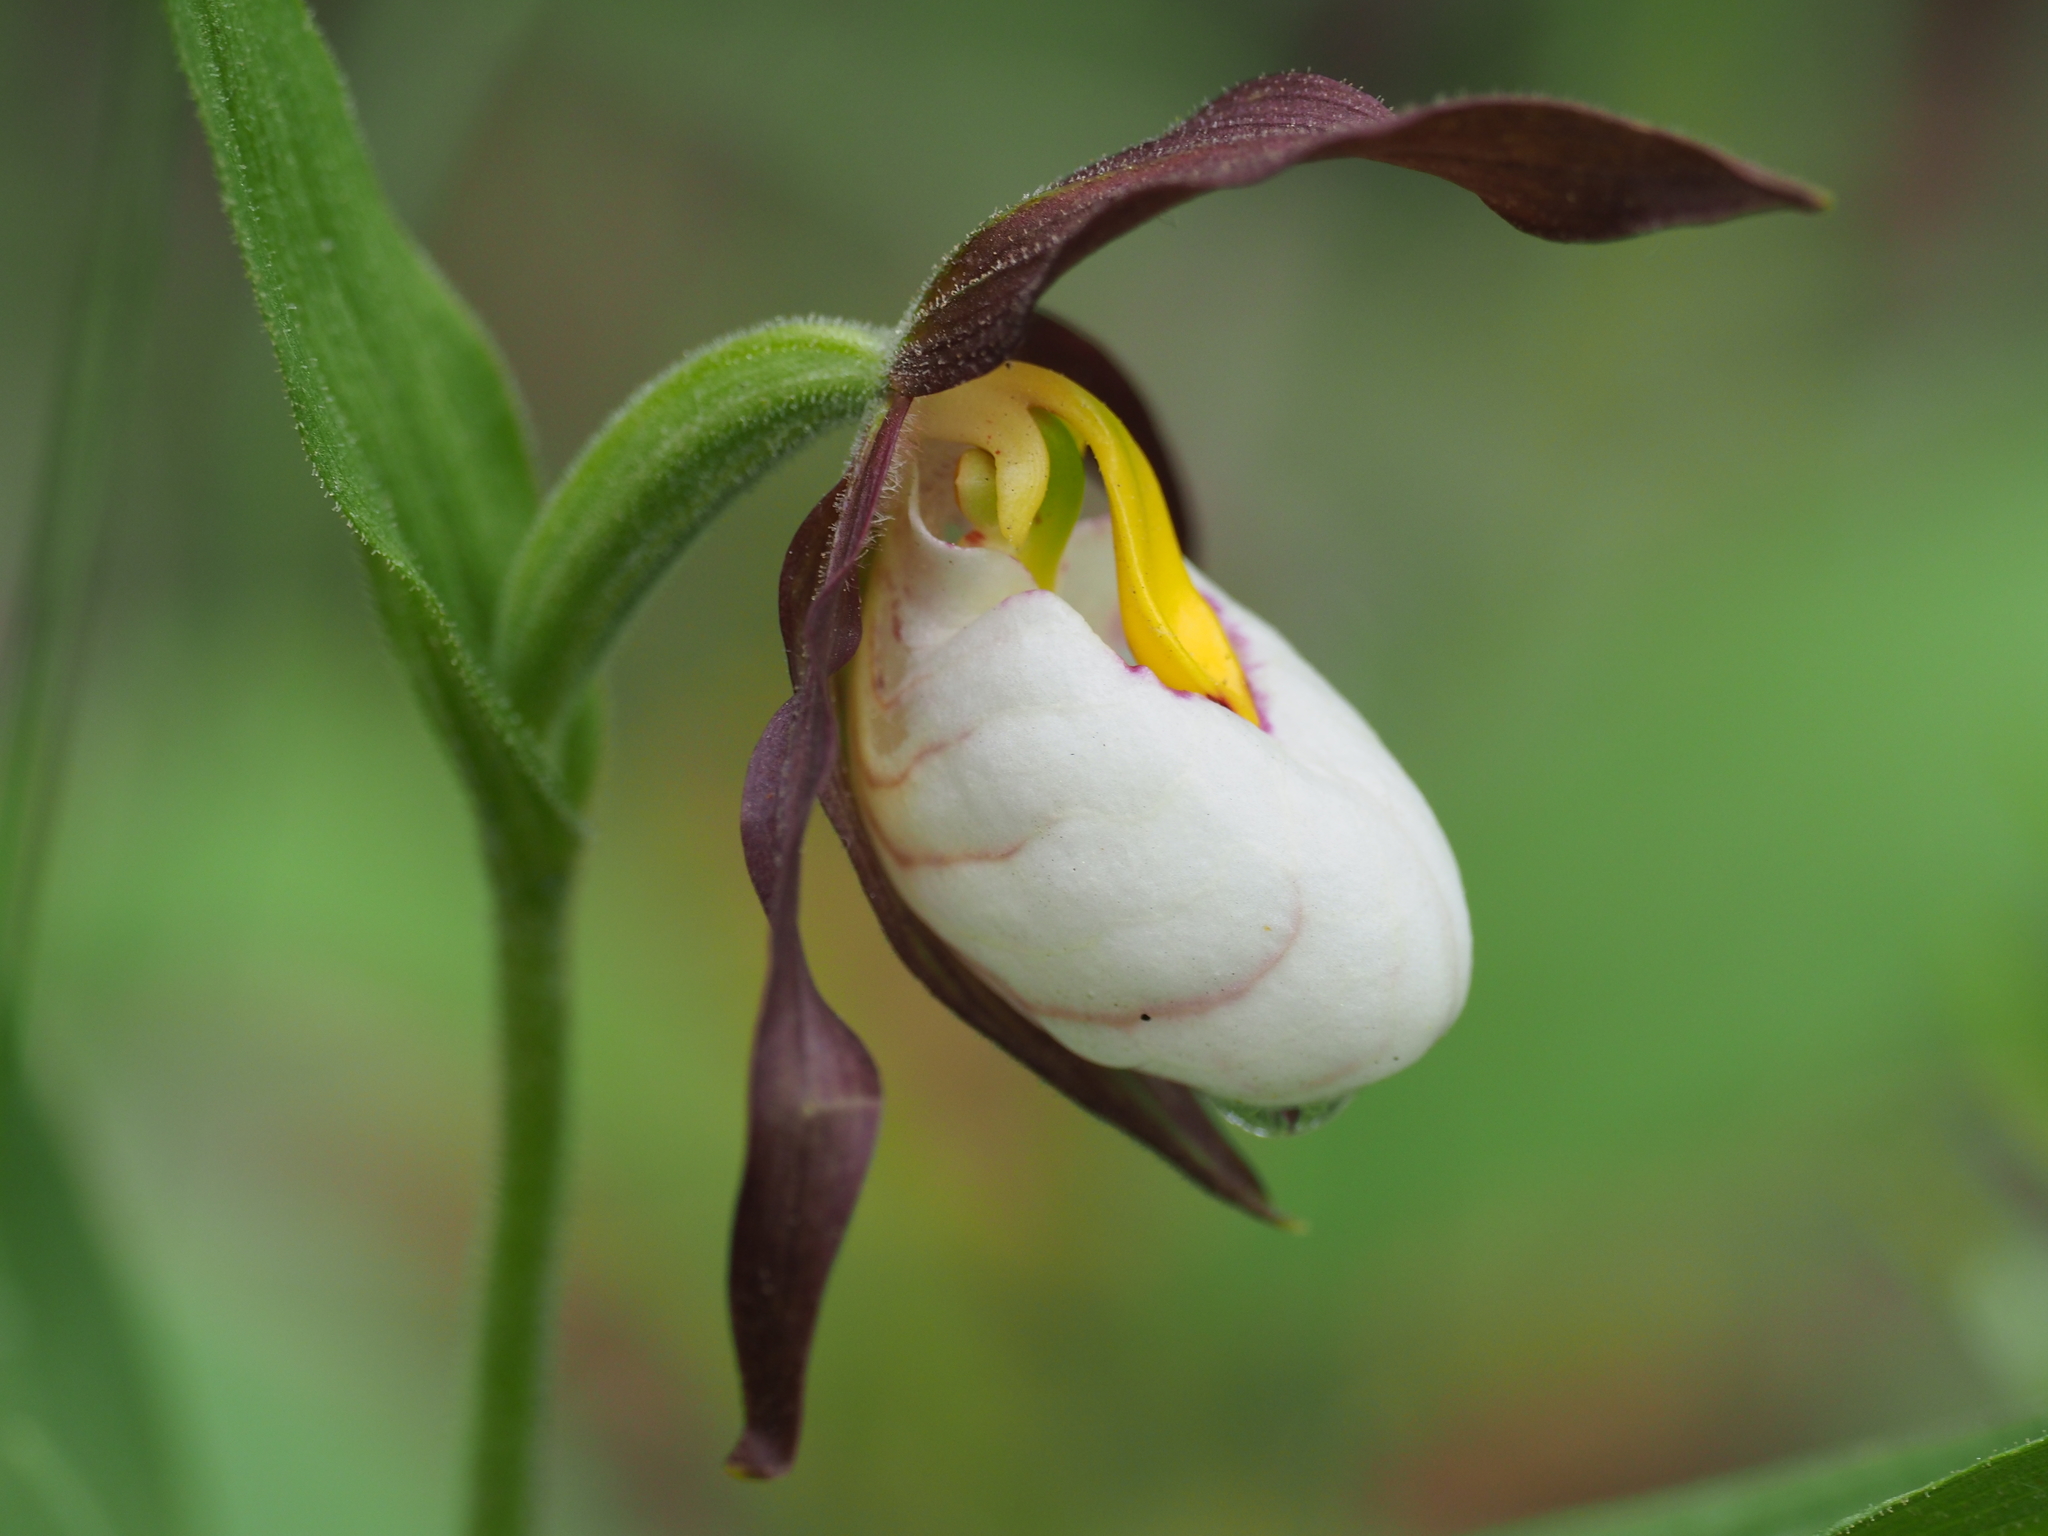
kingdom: Plantae
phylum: Tracheophyta
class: Liliopsida
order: Asparagales
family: Orchidaceae
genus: Cypripedium
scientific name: Cypripedium montanum
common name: Mountain lady's-slipper
